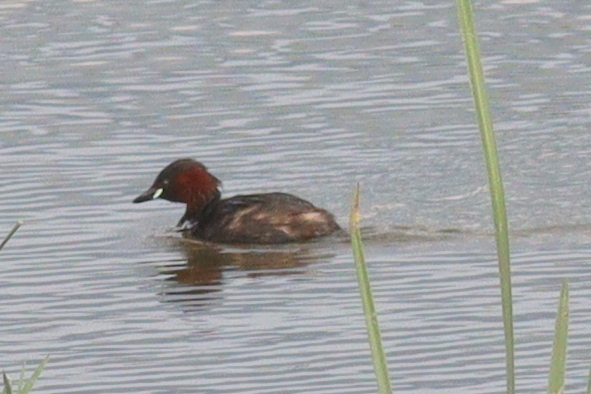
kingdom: Animalia
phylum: Chordata
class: Aves
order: Podicipediformes
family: Podicipedidae
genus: Tachybaptus
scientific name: Tachybaptus ruficollis
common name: Little grebe
